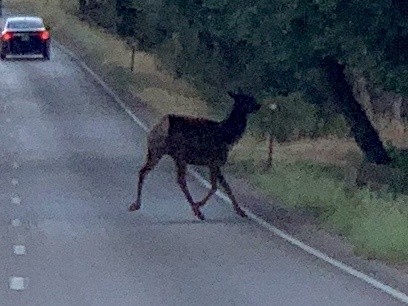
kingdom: Animalia
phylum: Chordata
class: Mammalia
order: Artiodactyla
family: Cervidae
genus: Cervus
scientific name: Cervus elaphus
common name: Red deer
